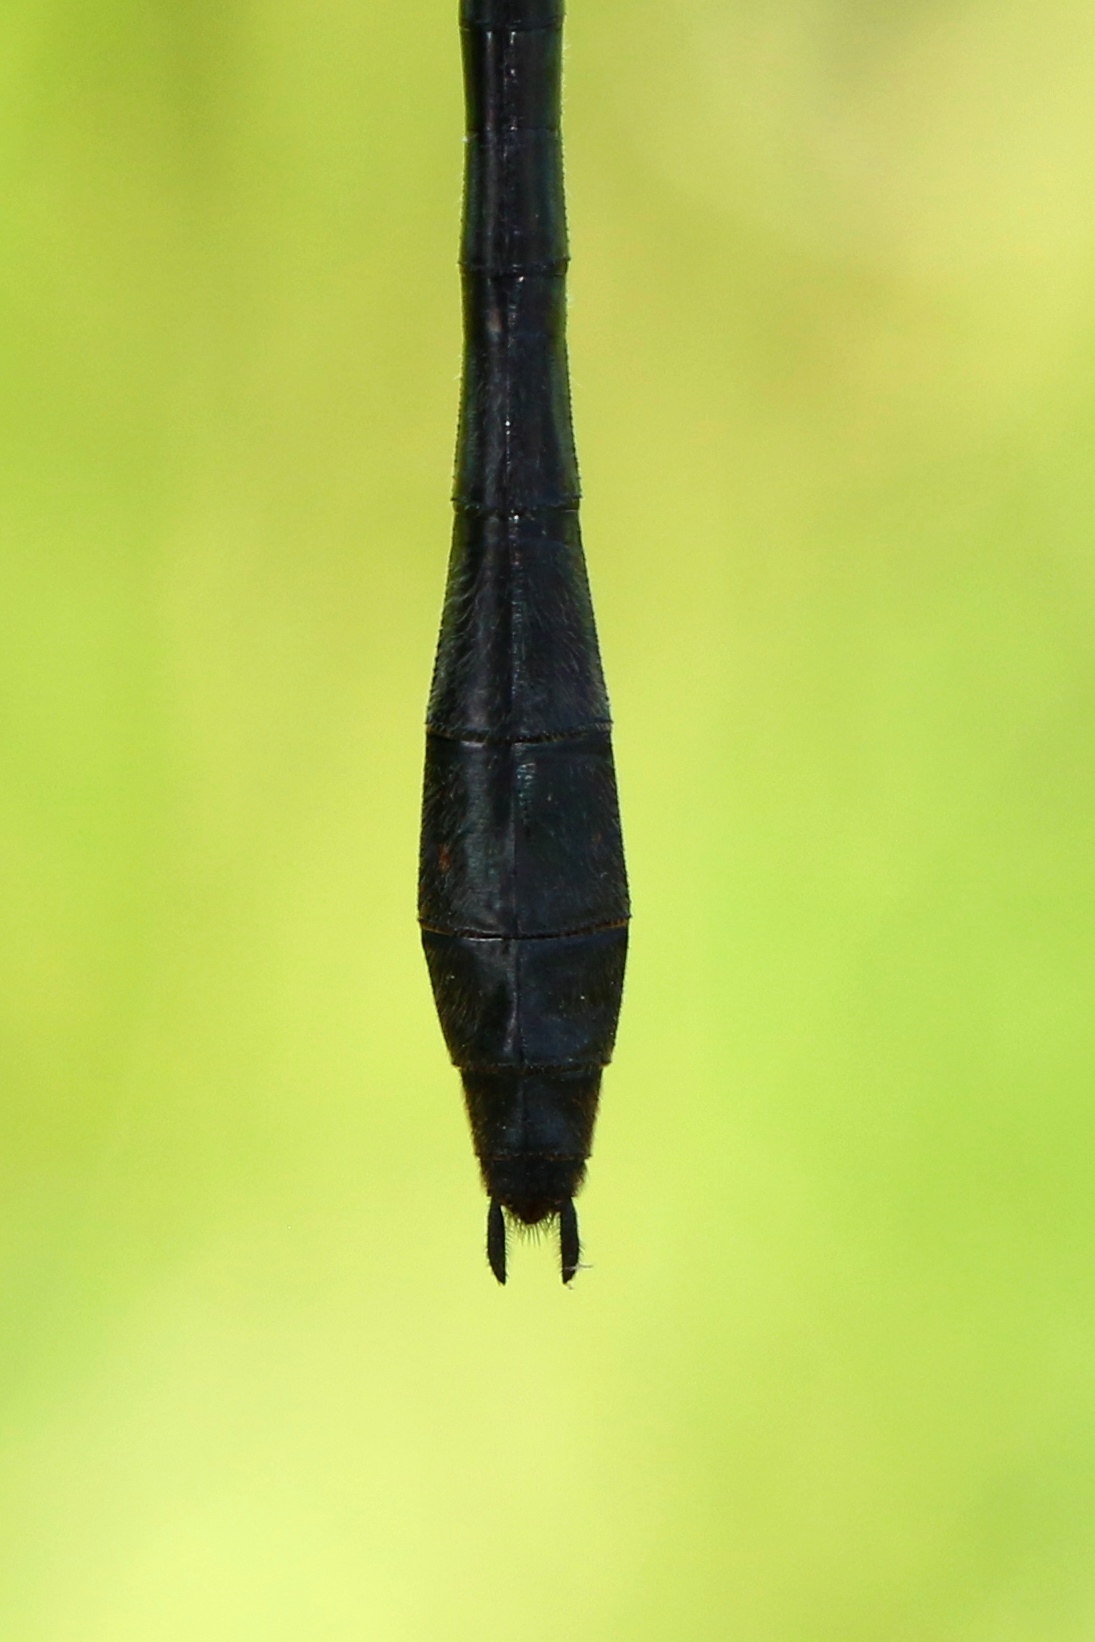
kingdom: Animalia
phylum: Arthropoda
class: Insecta
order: Odonata
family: Corduliidae
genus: Dorocordulia
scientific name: Dorocordulia libera
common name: Racket-tailed emerald
